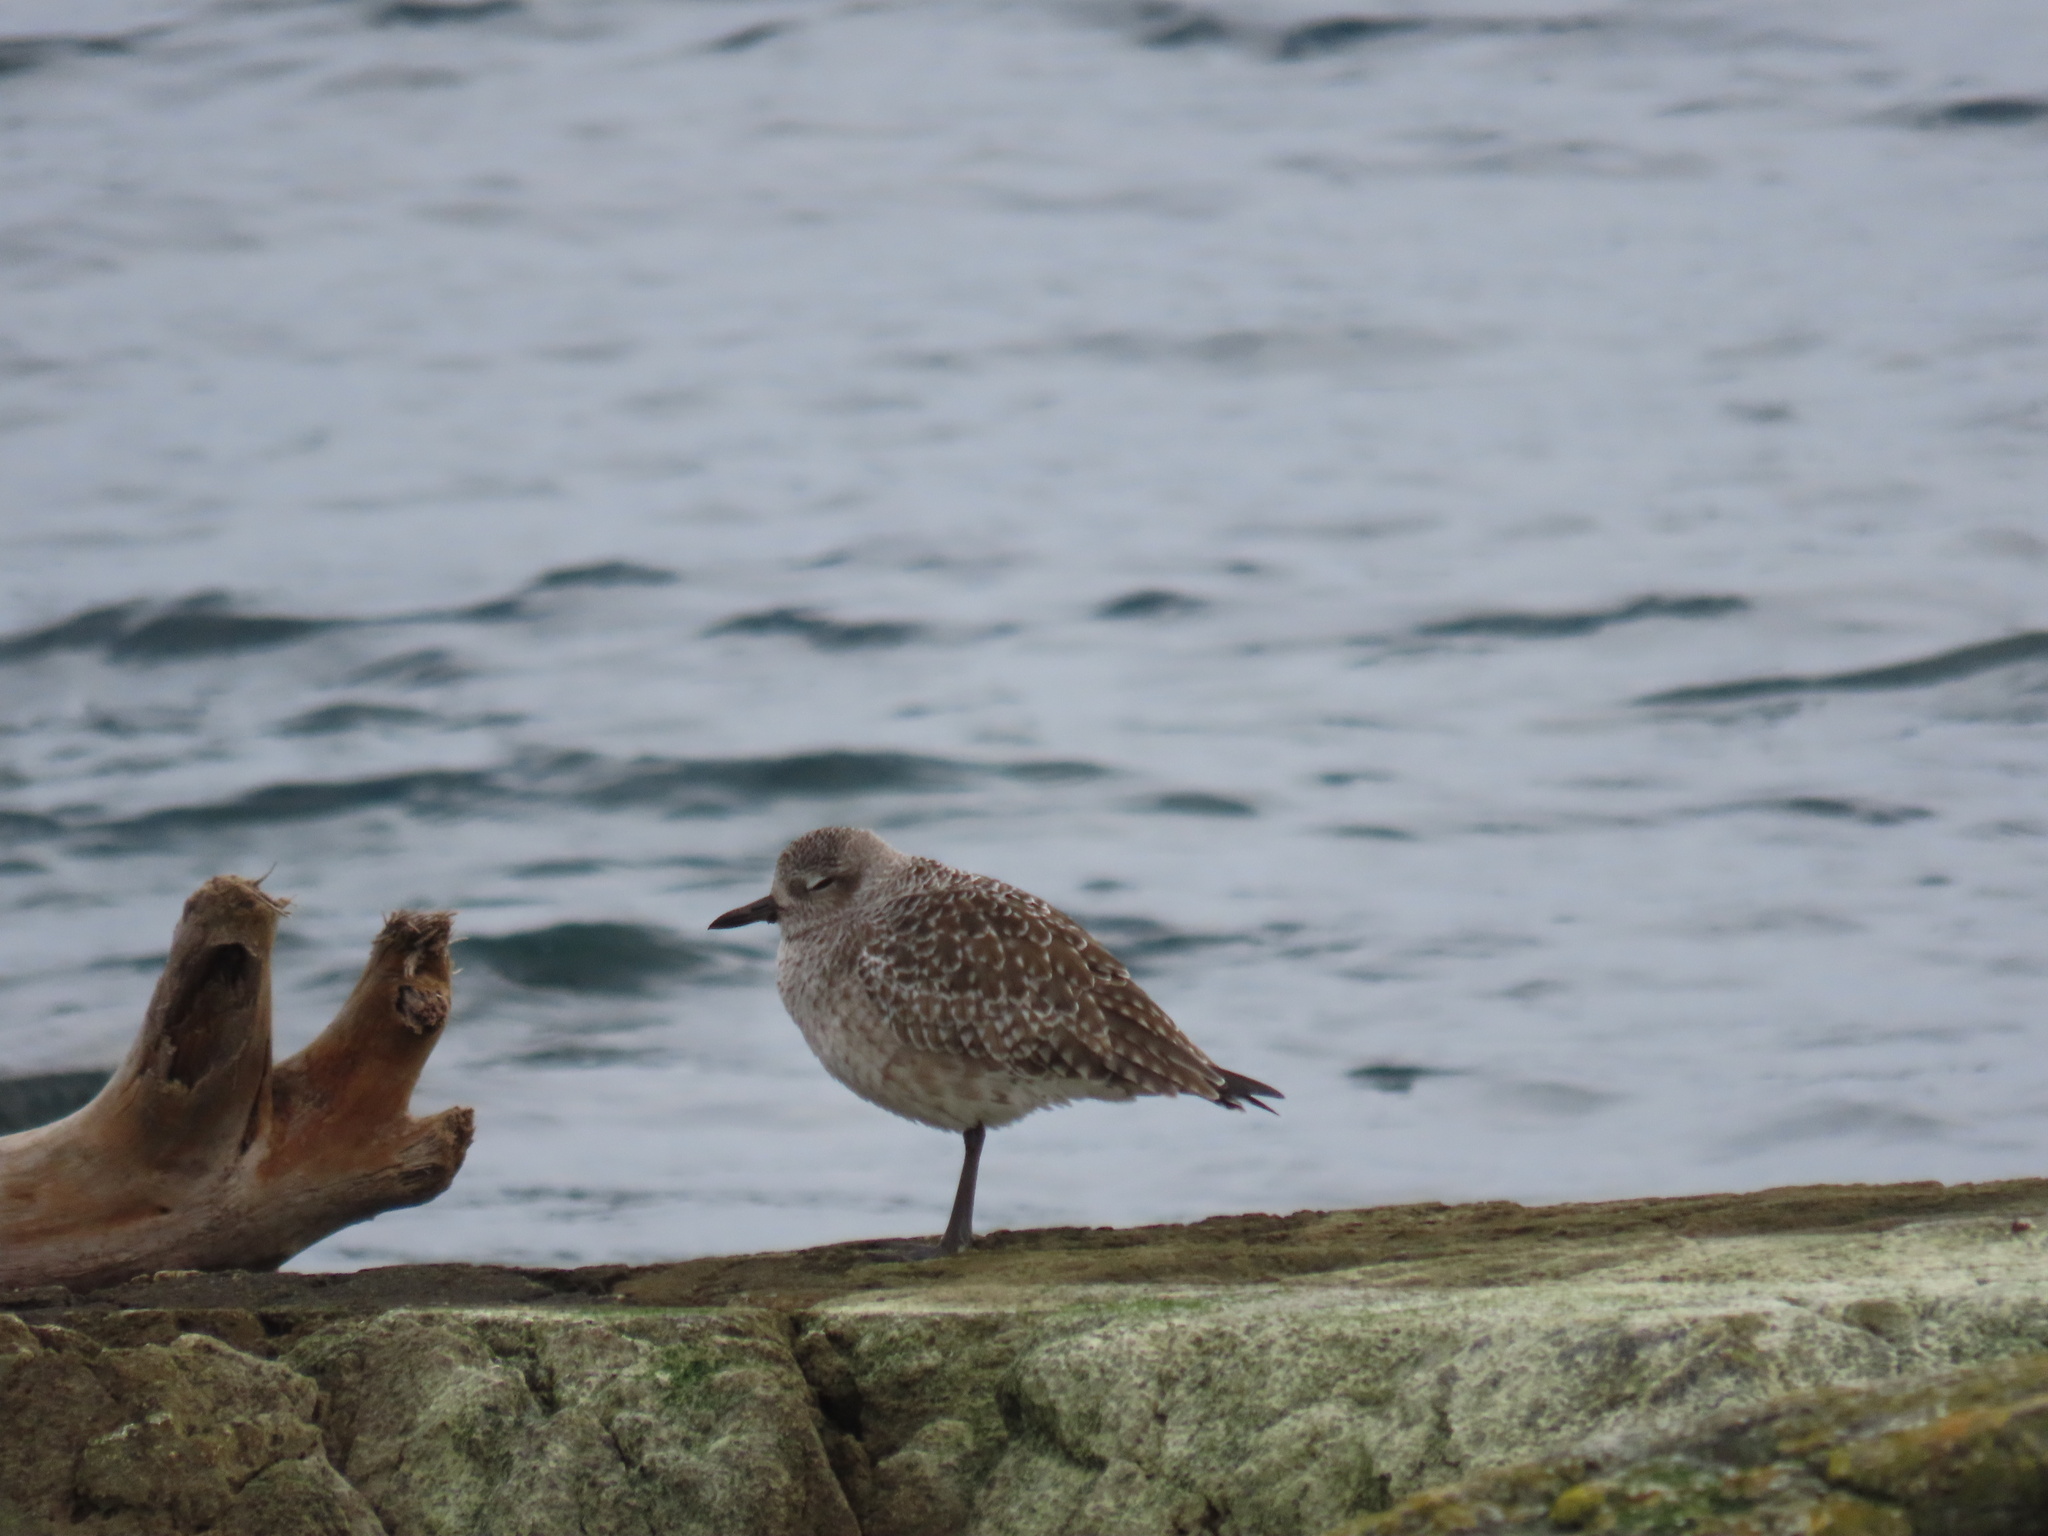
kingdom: Animalia
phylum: Chordata
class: Aves
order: Charadriiformes
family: Charadriidae
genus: Pluvialis
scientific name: Pluvialis squatarola
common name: Grey plover
